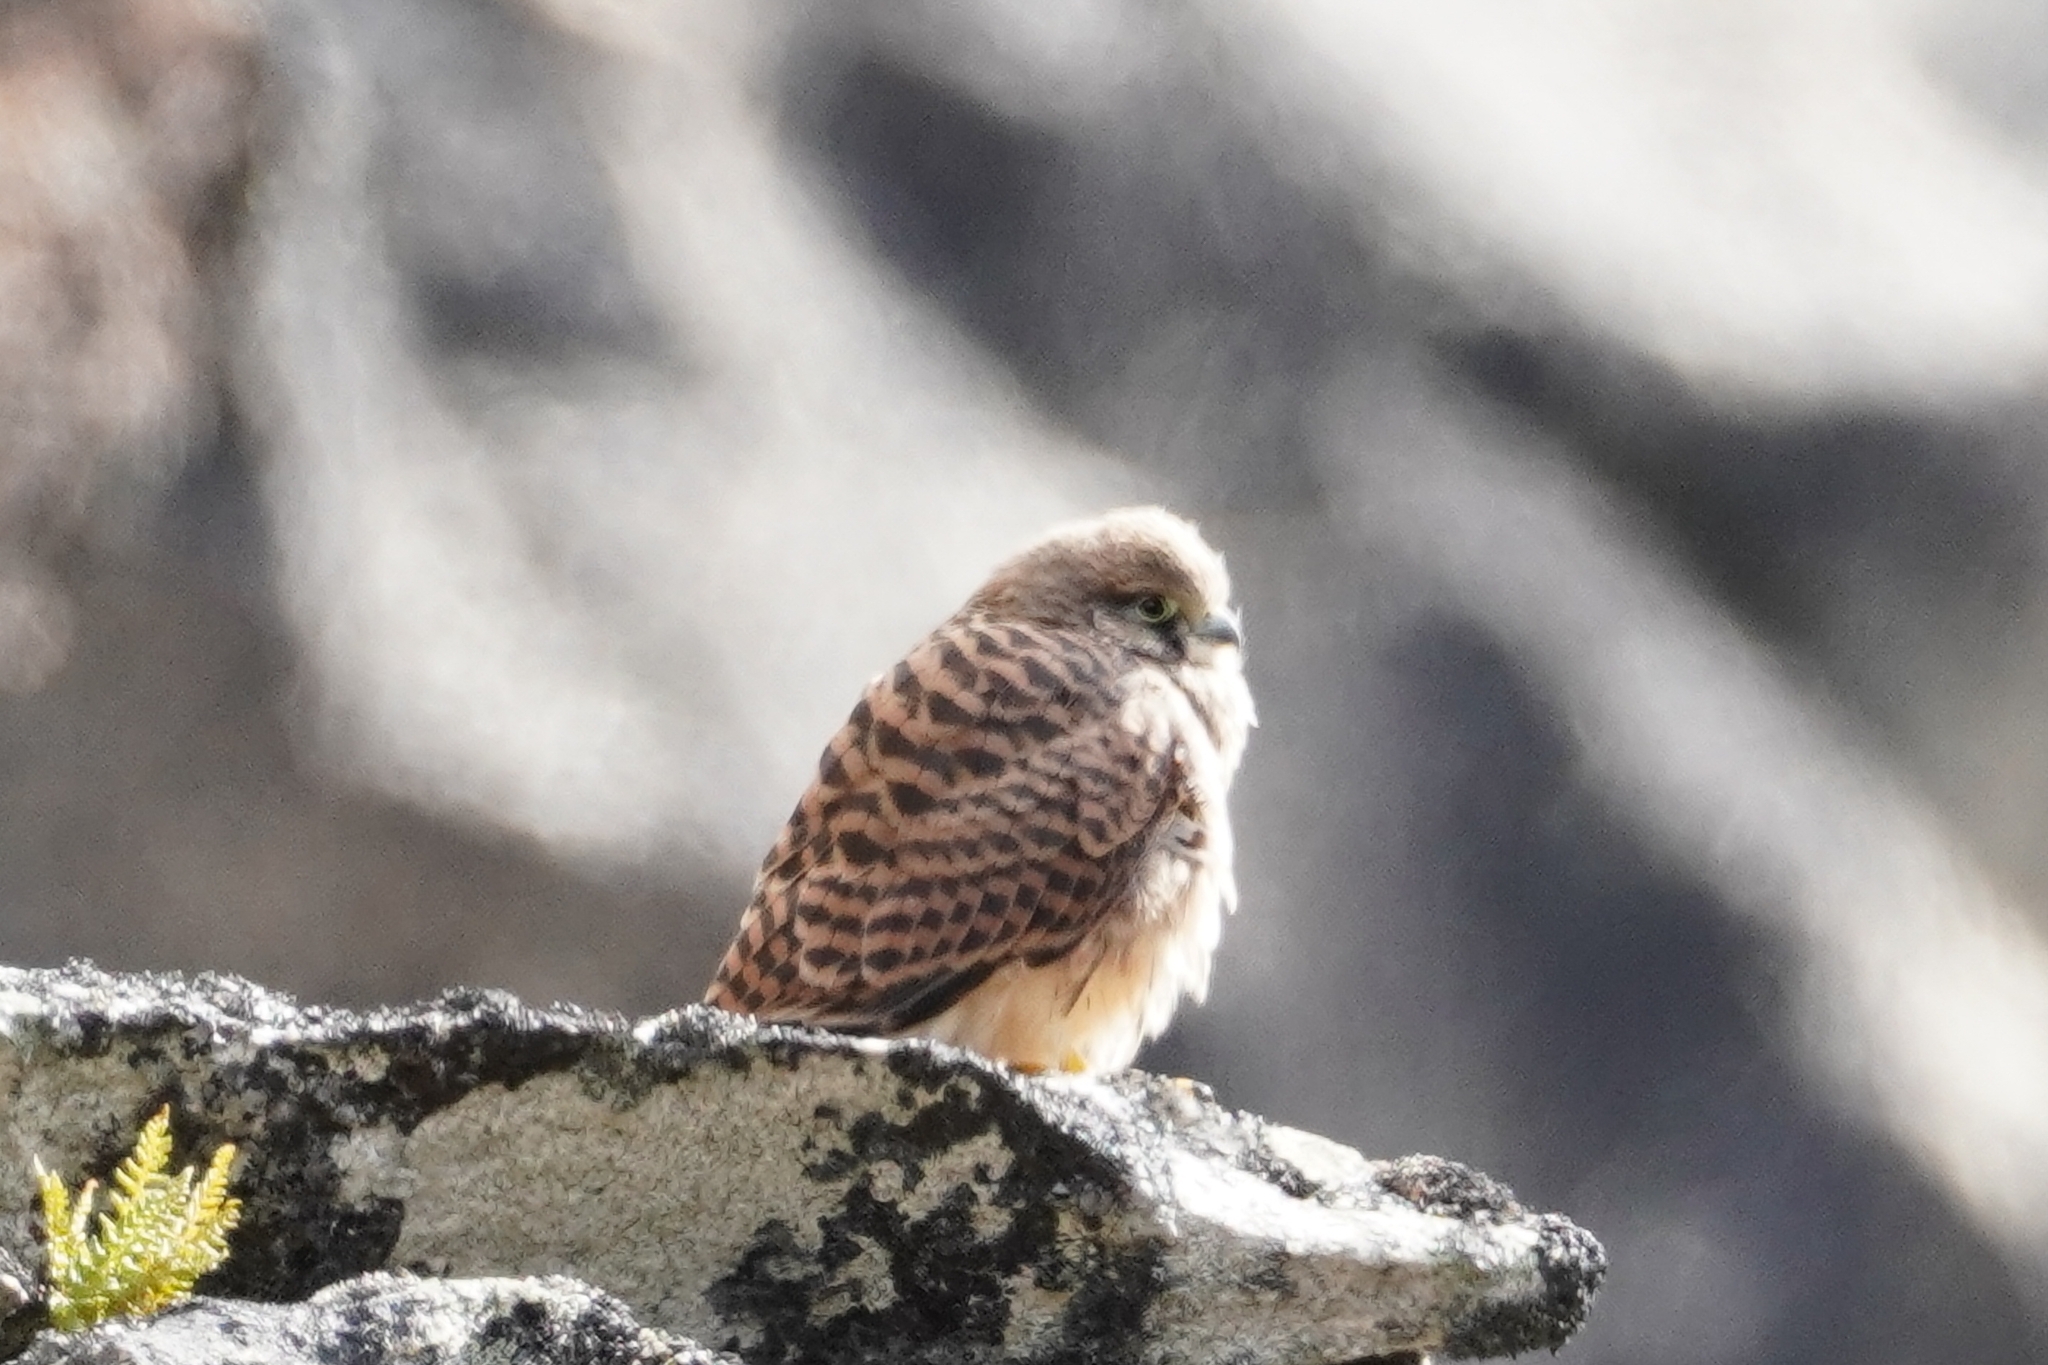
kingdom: Animalia
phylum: Chordata
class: Aves
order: Falconiformes
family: Falconidae
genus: Falco
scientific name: Falco tinnunculus
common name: Common kestrel
